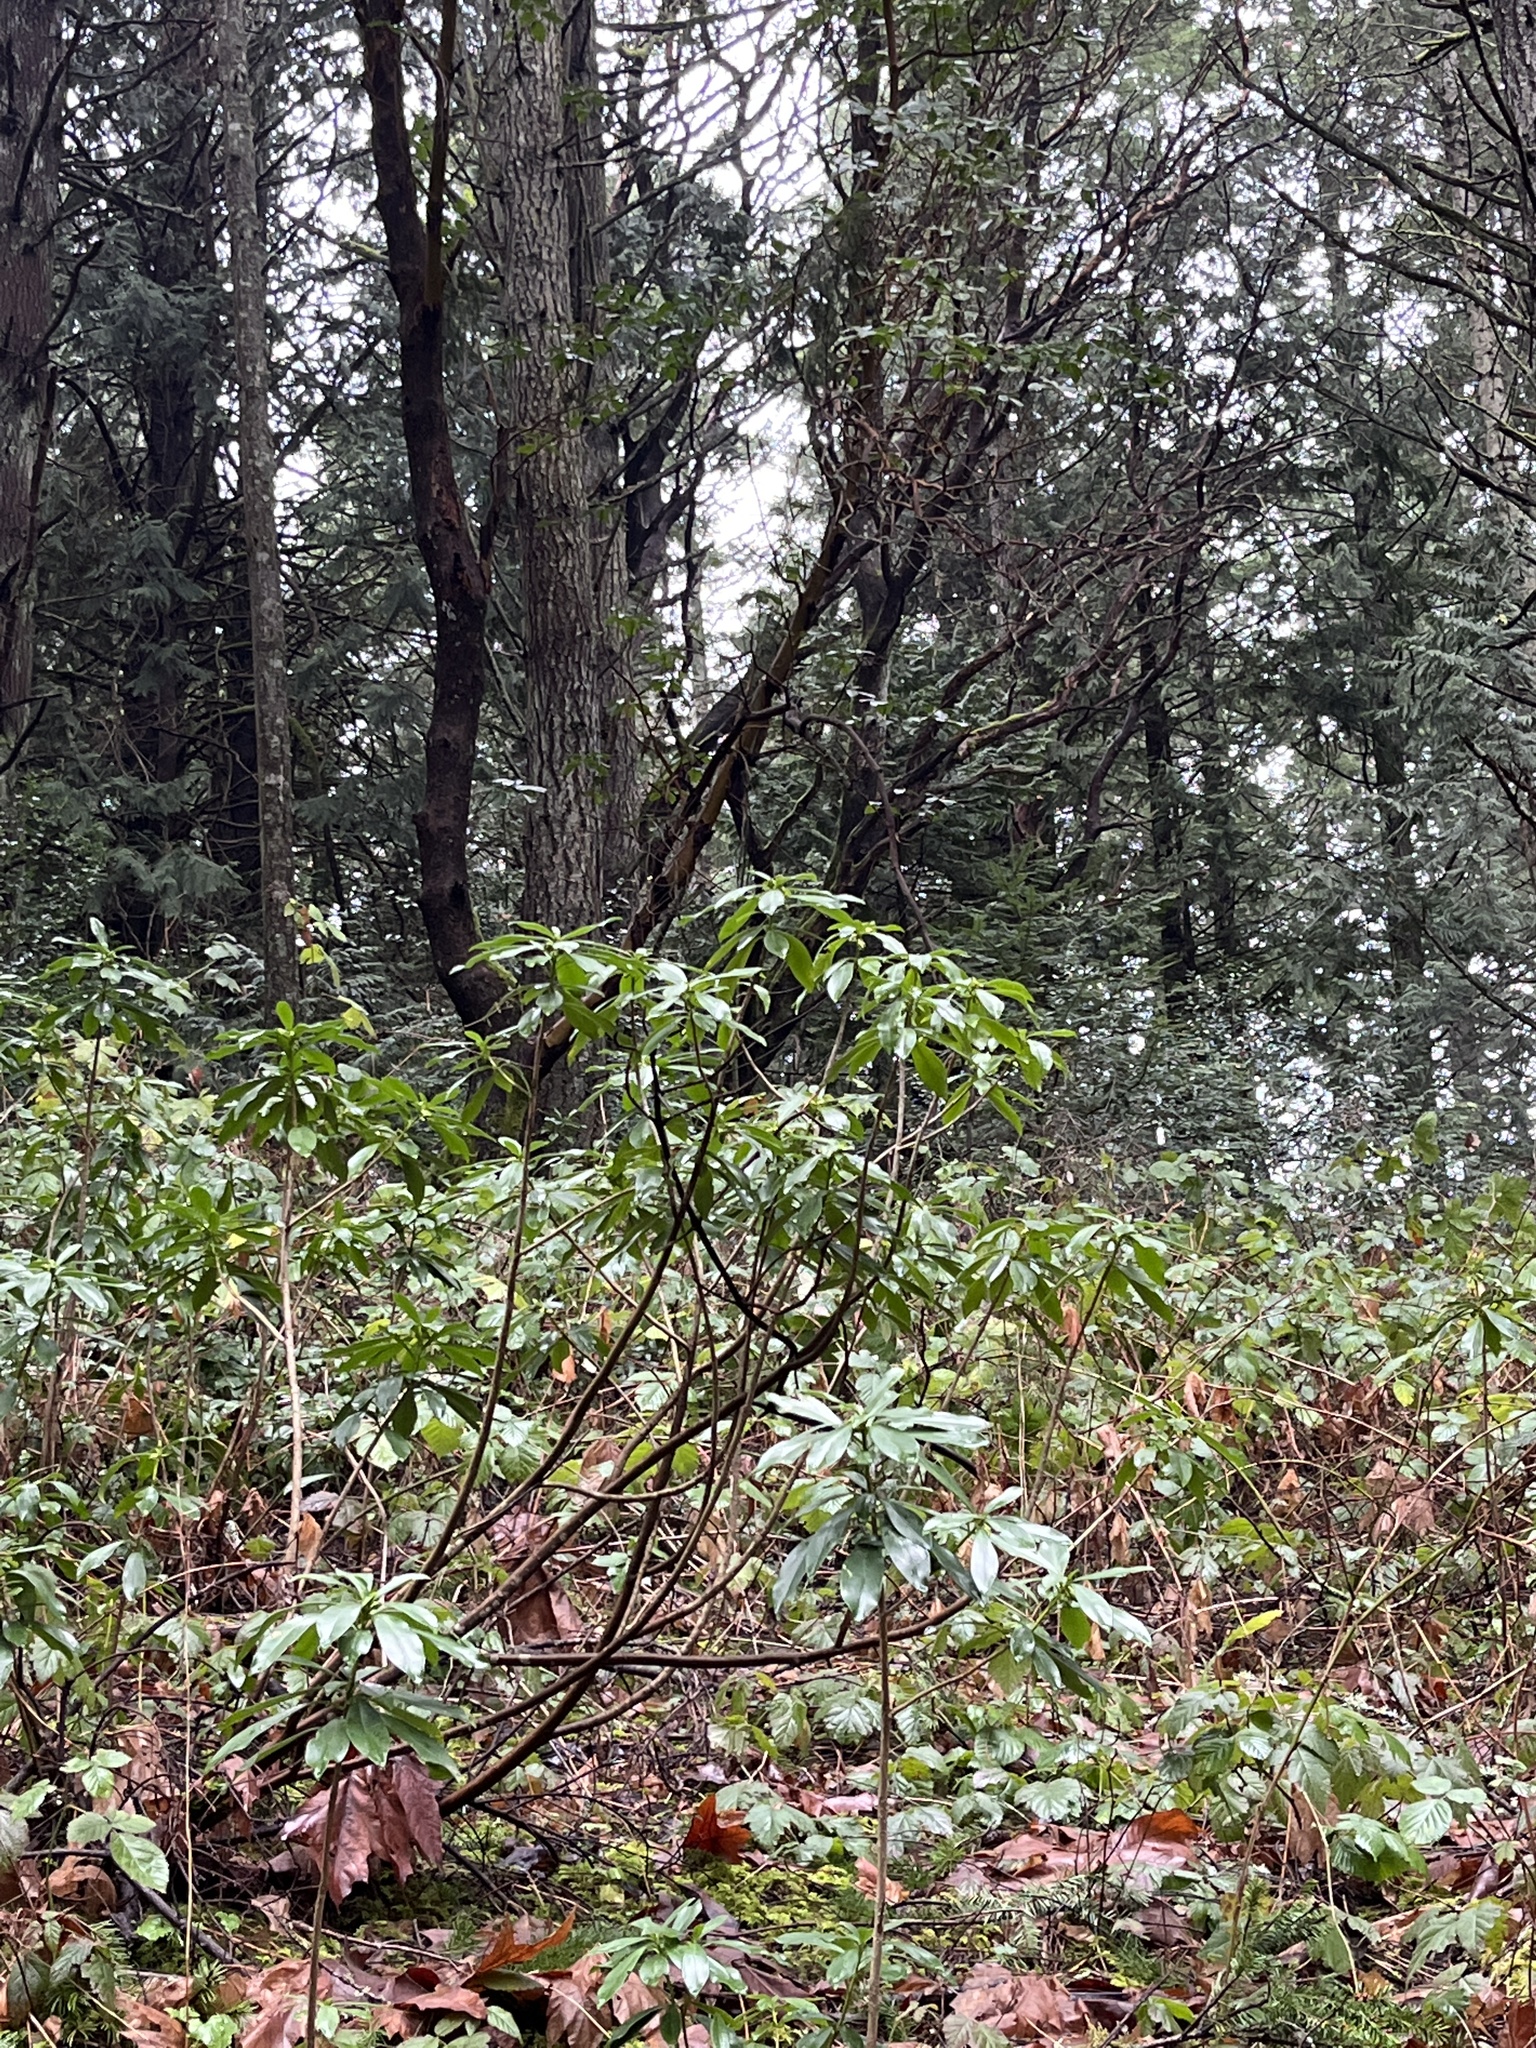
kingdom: Plantae
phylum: Tracheophyta
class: Magnoliopsida
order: Malvales
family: Thymelaeaceae
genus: Daphne
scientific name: Daphne laureola
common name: Spurge-laurel
